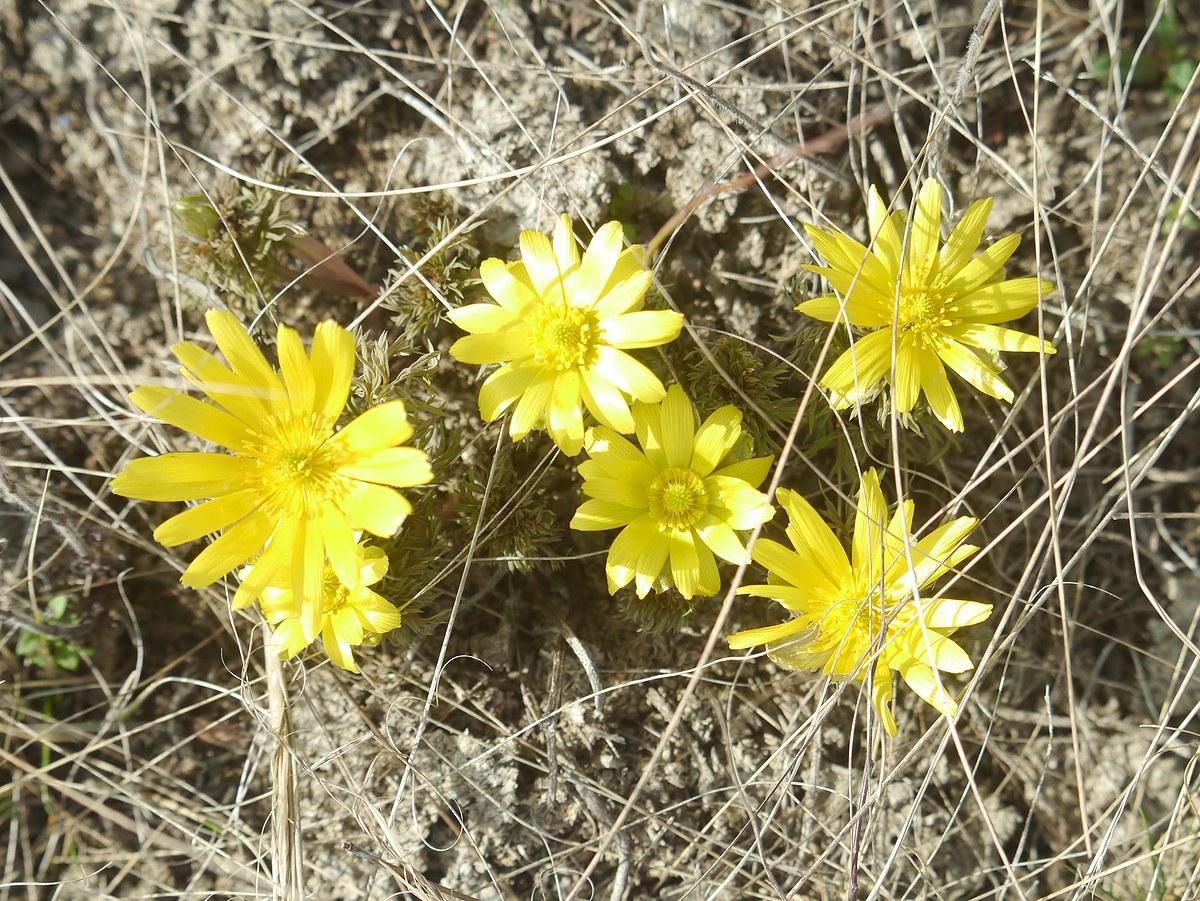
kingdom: Plantae
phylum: Tracheophyta
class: Magnoliopsida
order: Ranunculales
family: Ranunculaceae
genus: Adonis
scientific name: Adonis volgensis
